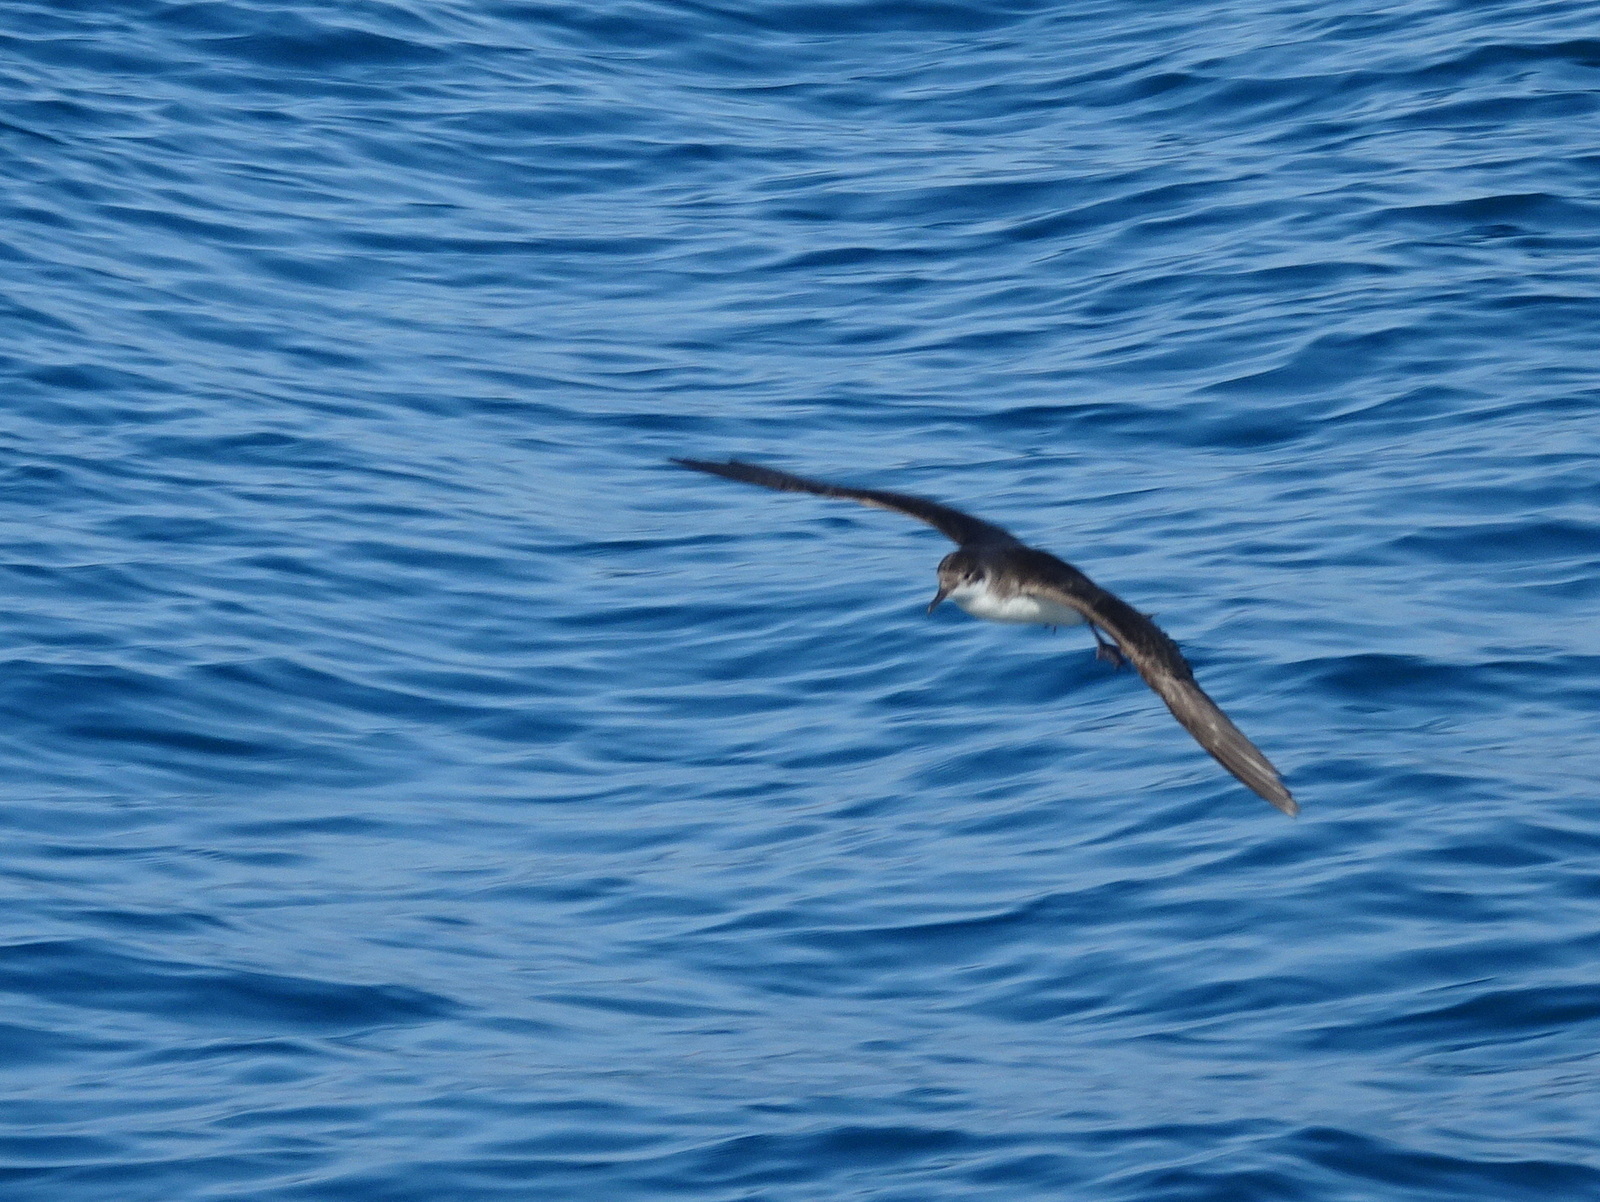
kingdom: Animalia
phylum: Chordata
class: Aves
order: Procellariiformes
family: Procellariidae
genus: Puffinus
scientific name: Puffinus yelkouan
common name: Yelkouan shearwater
